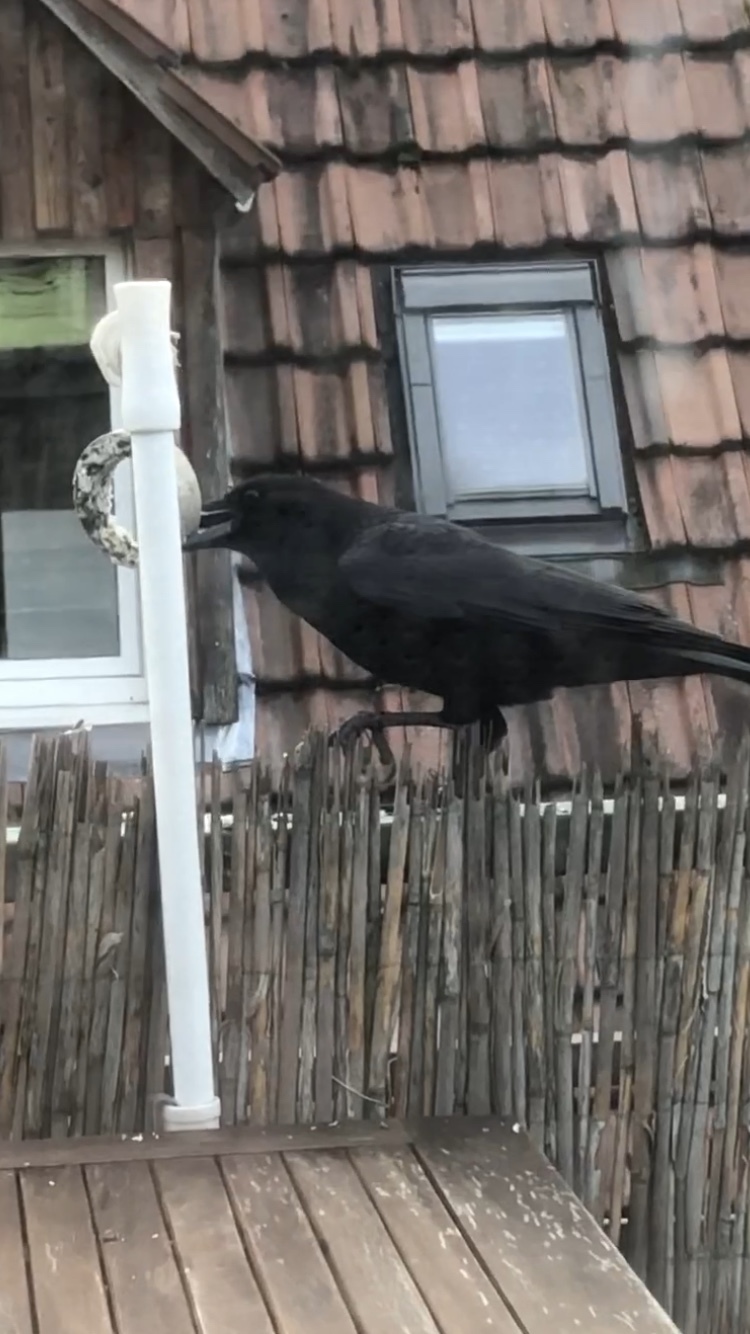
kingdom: Animalia
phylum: Chordata
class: Aves
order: Passeriformes
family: Corvidae
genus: Corvus
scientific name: Corvus corone
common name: Carrion crow
